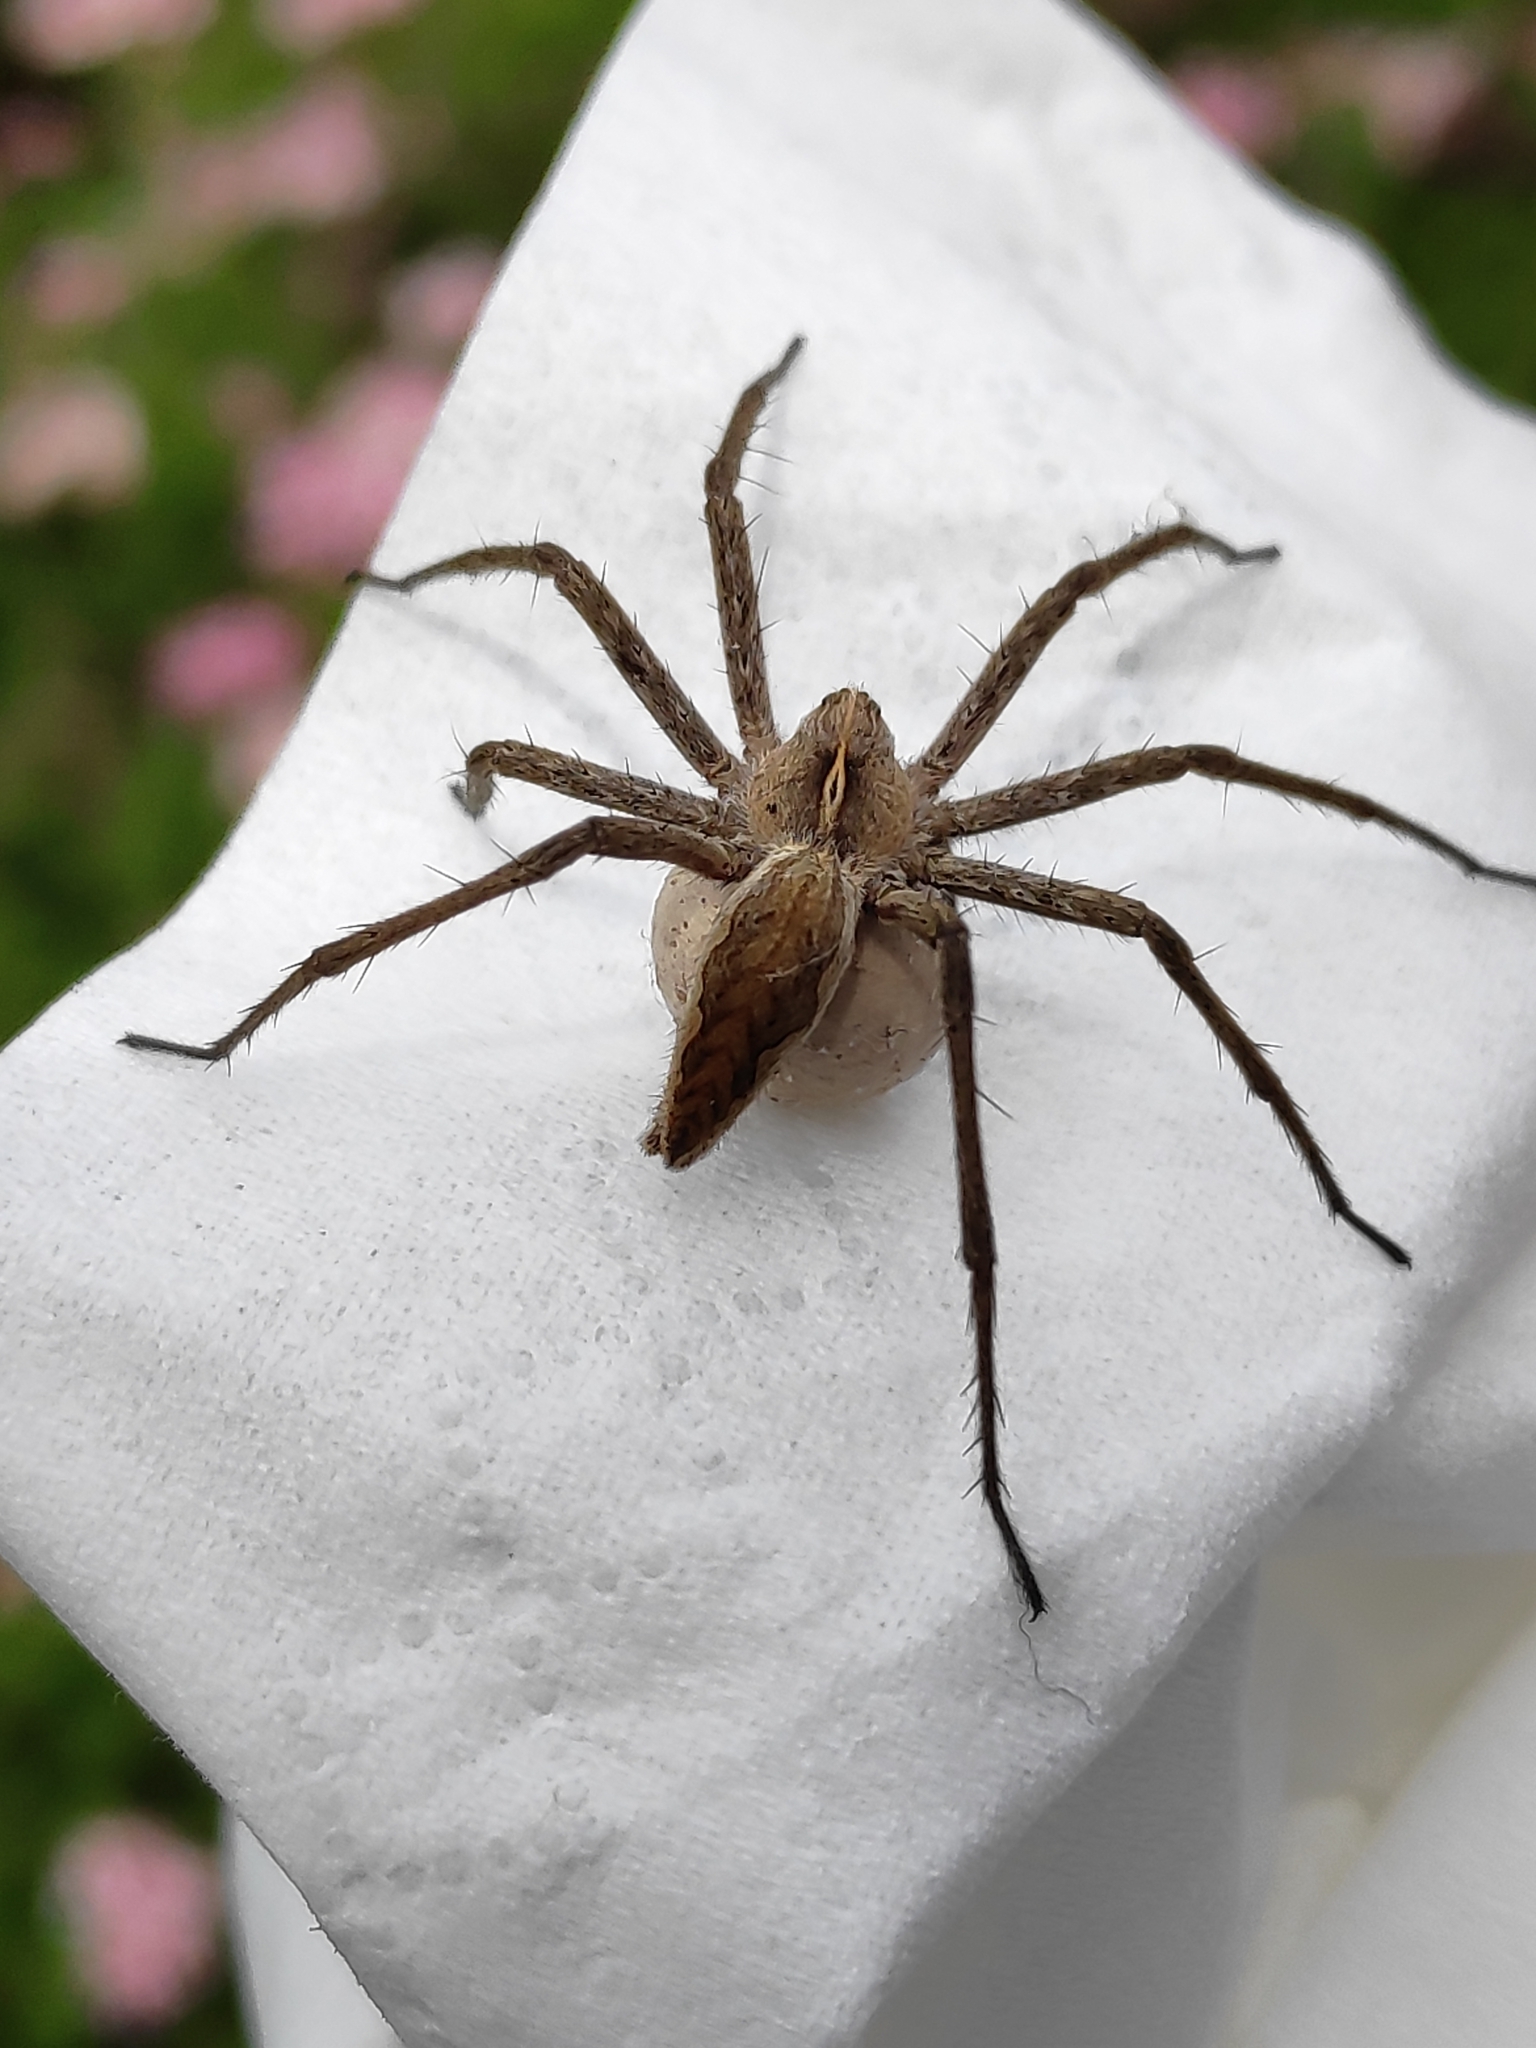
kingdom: Animalia
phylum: Arthropoda
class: Arachnida
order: Araneae
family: Pisauridae
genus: Pisaura
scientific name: Pisaura mirabilis
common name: Tent spider
